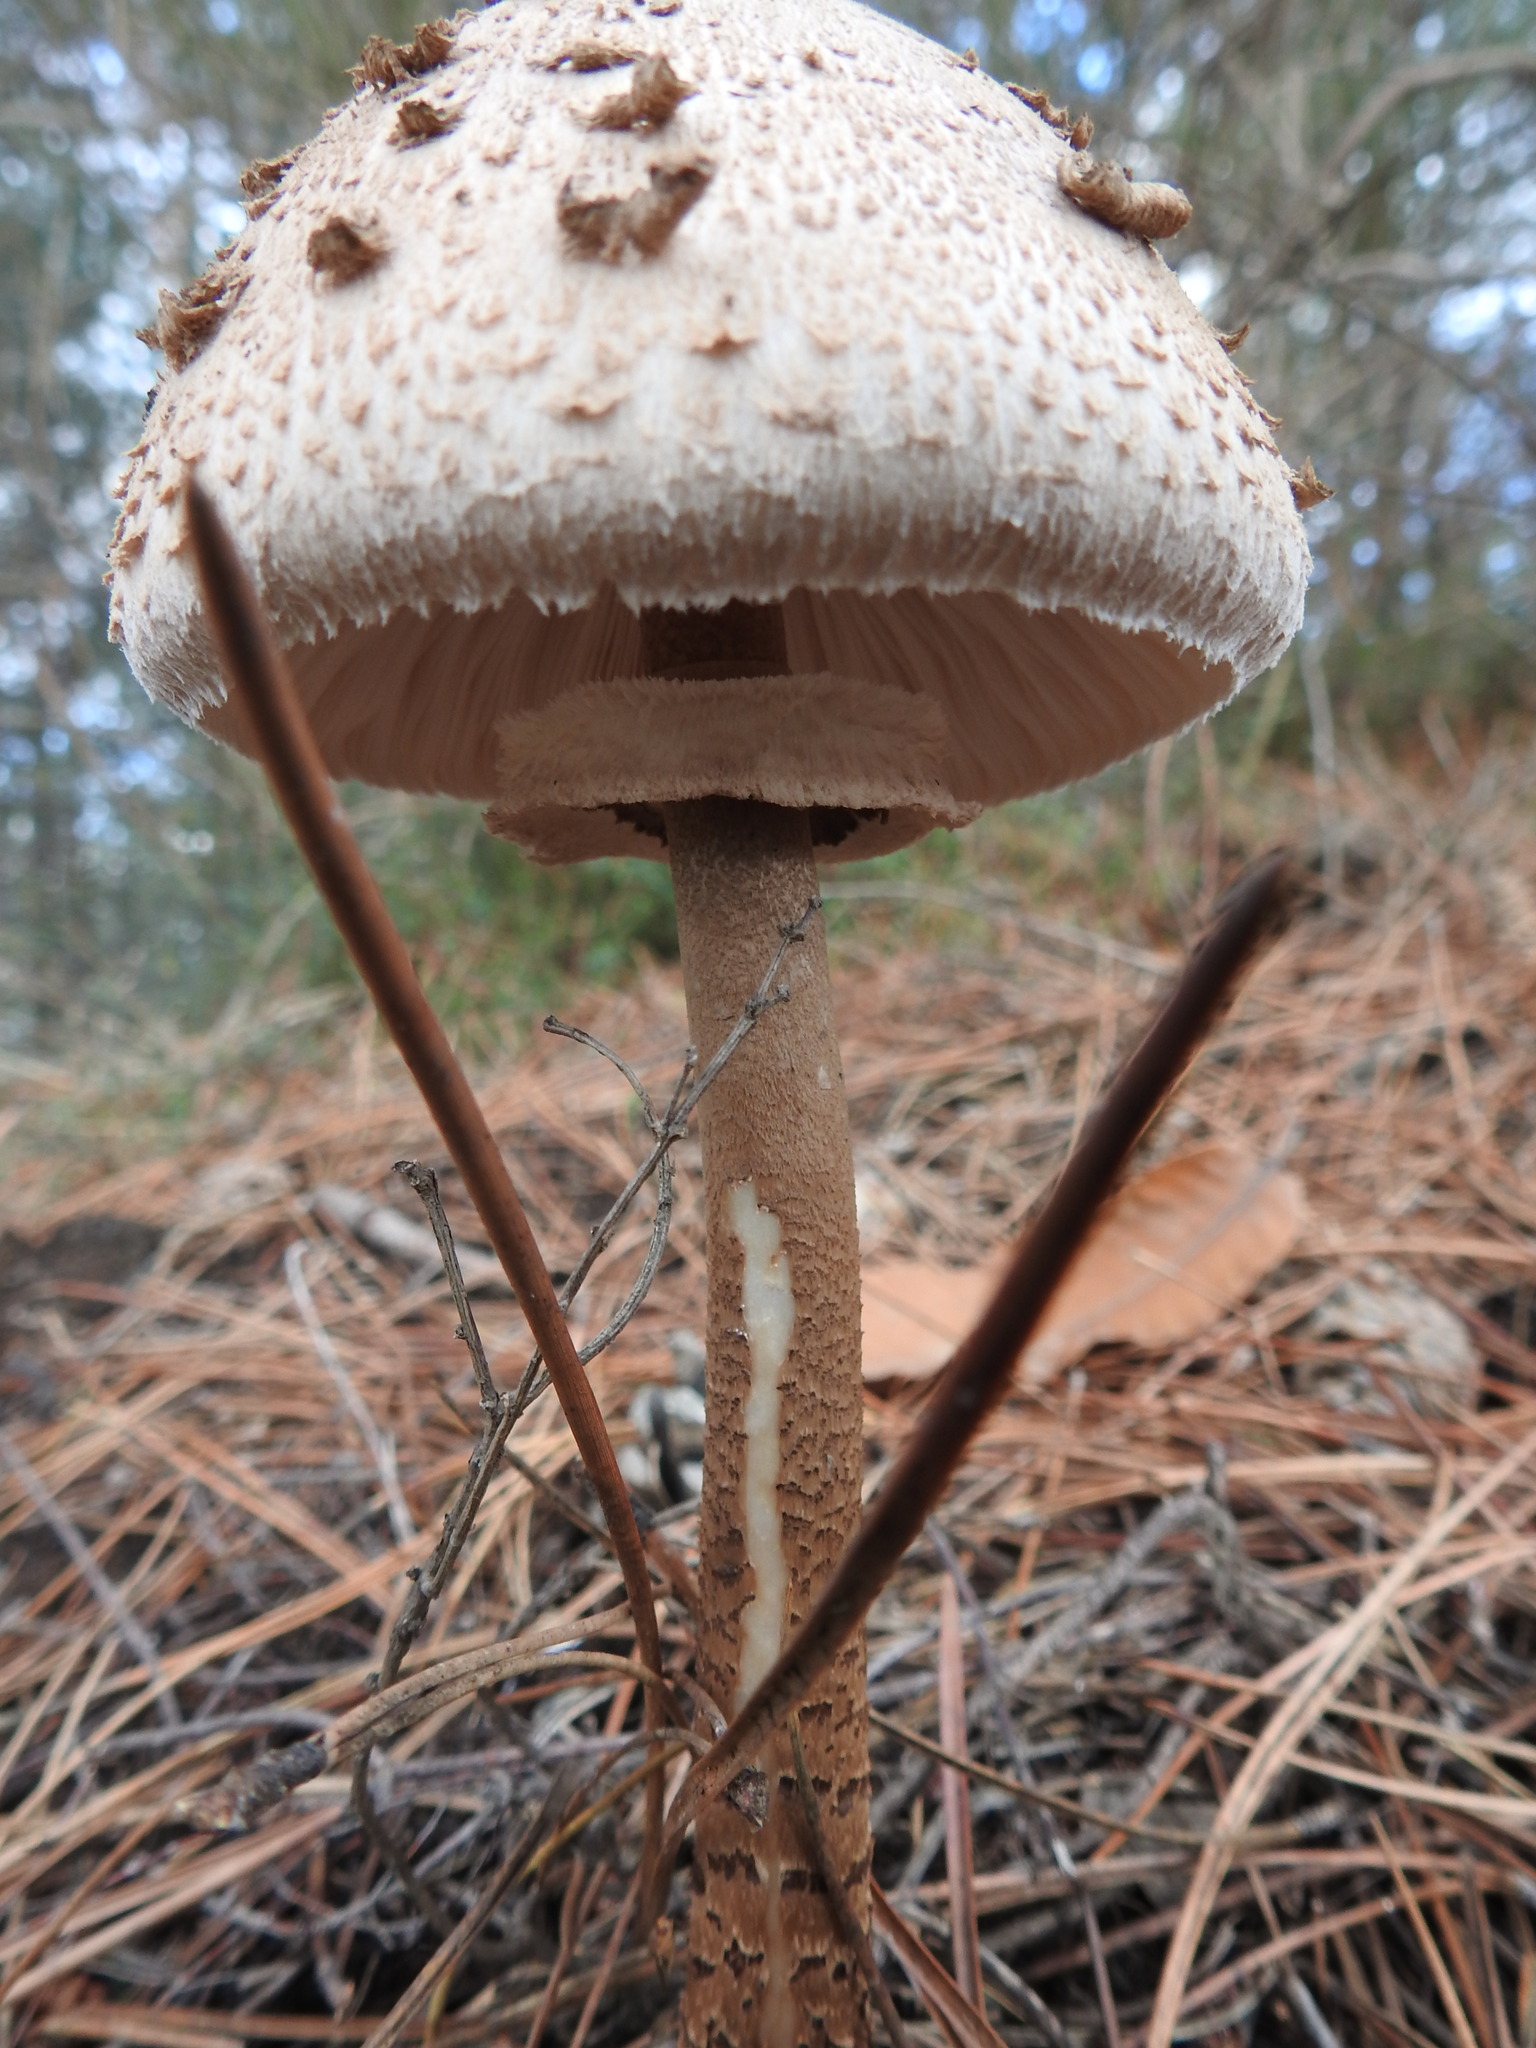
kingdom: Fungi
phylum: Basidiomycota
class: Agaricomycetes
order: Agaricales
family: Agaricaceae
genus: Macrolepiota
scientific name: Macrolepiota procera
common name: Parasol
